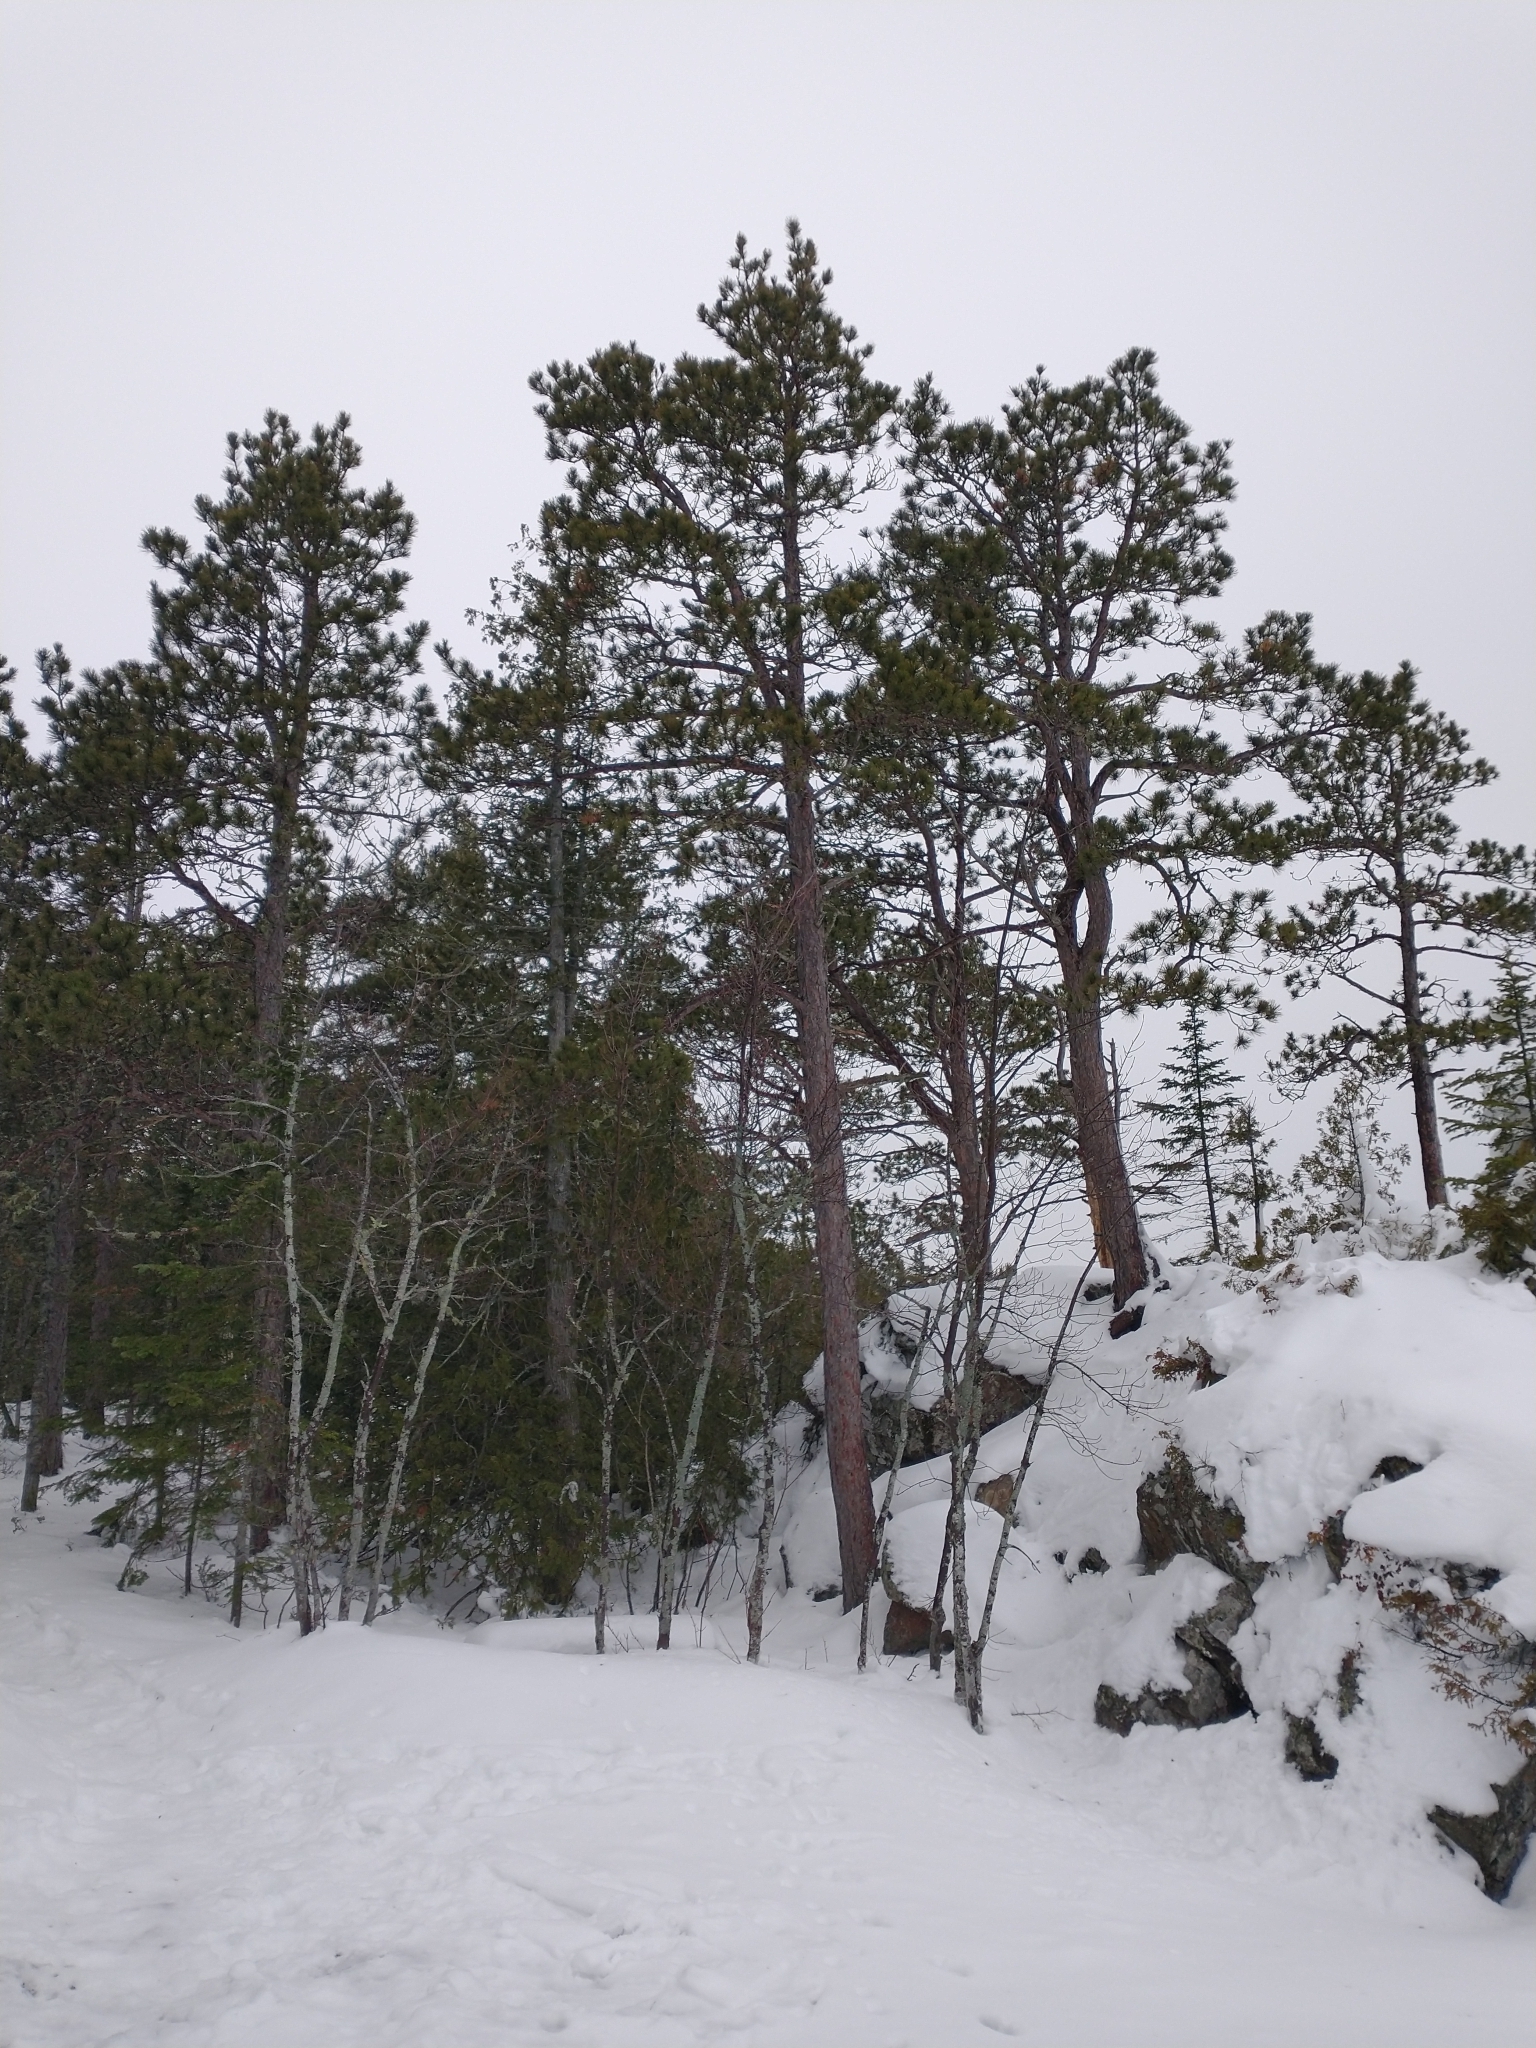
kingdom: Plantae
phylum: Tracheophyta
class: Pinopsida
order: Pinales
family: Pinaceae
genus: Pinus
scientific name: Pinus resinosa
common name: Norway pine
